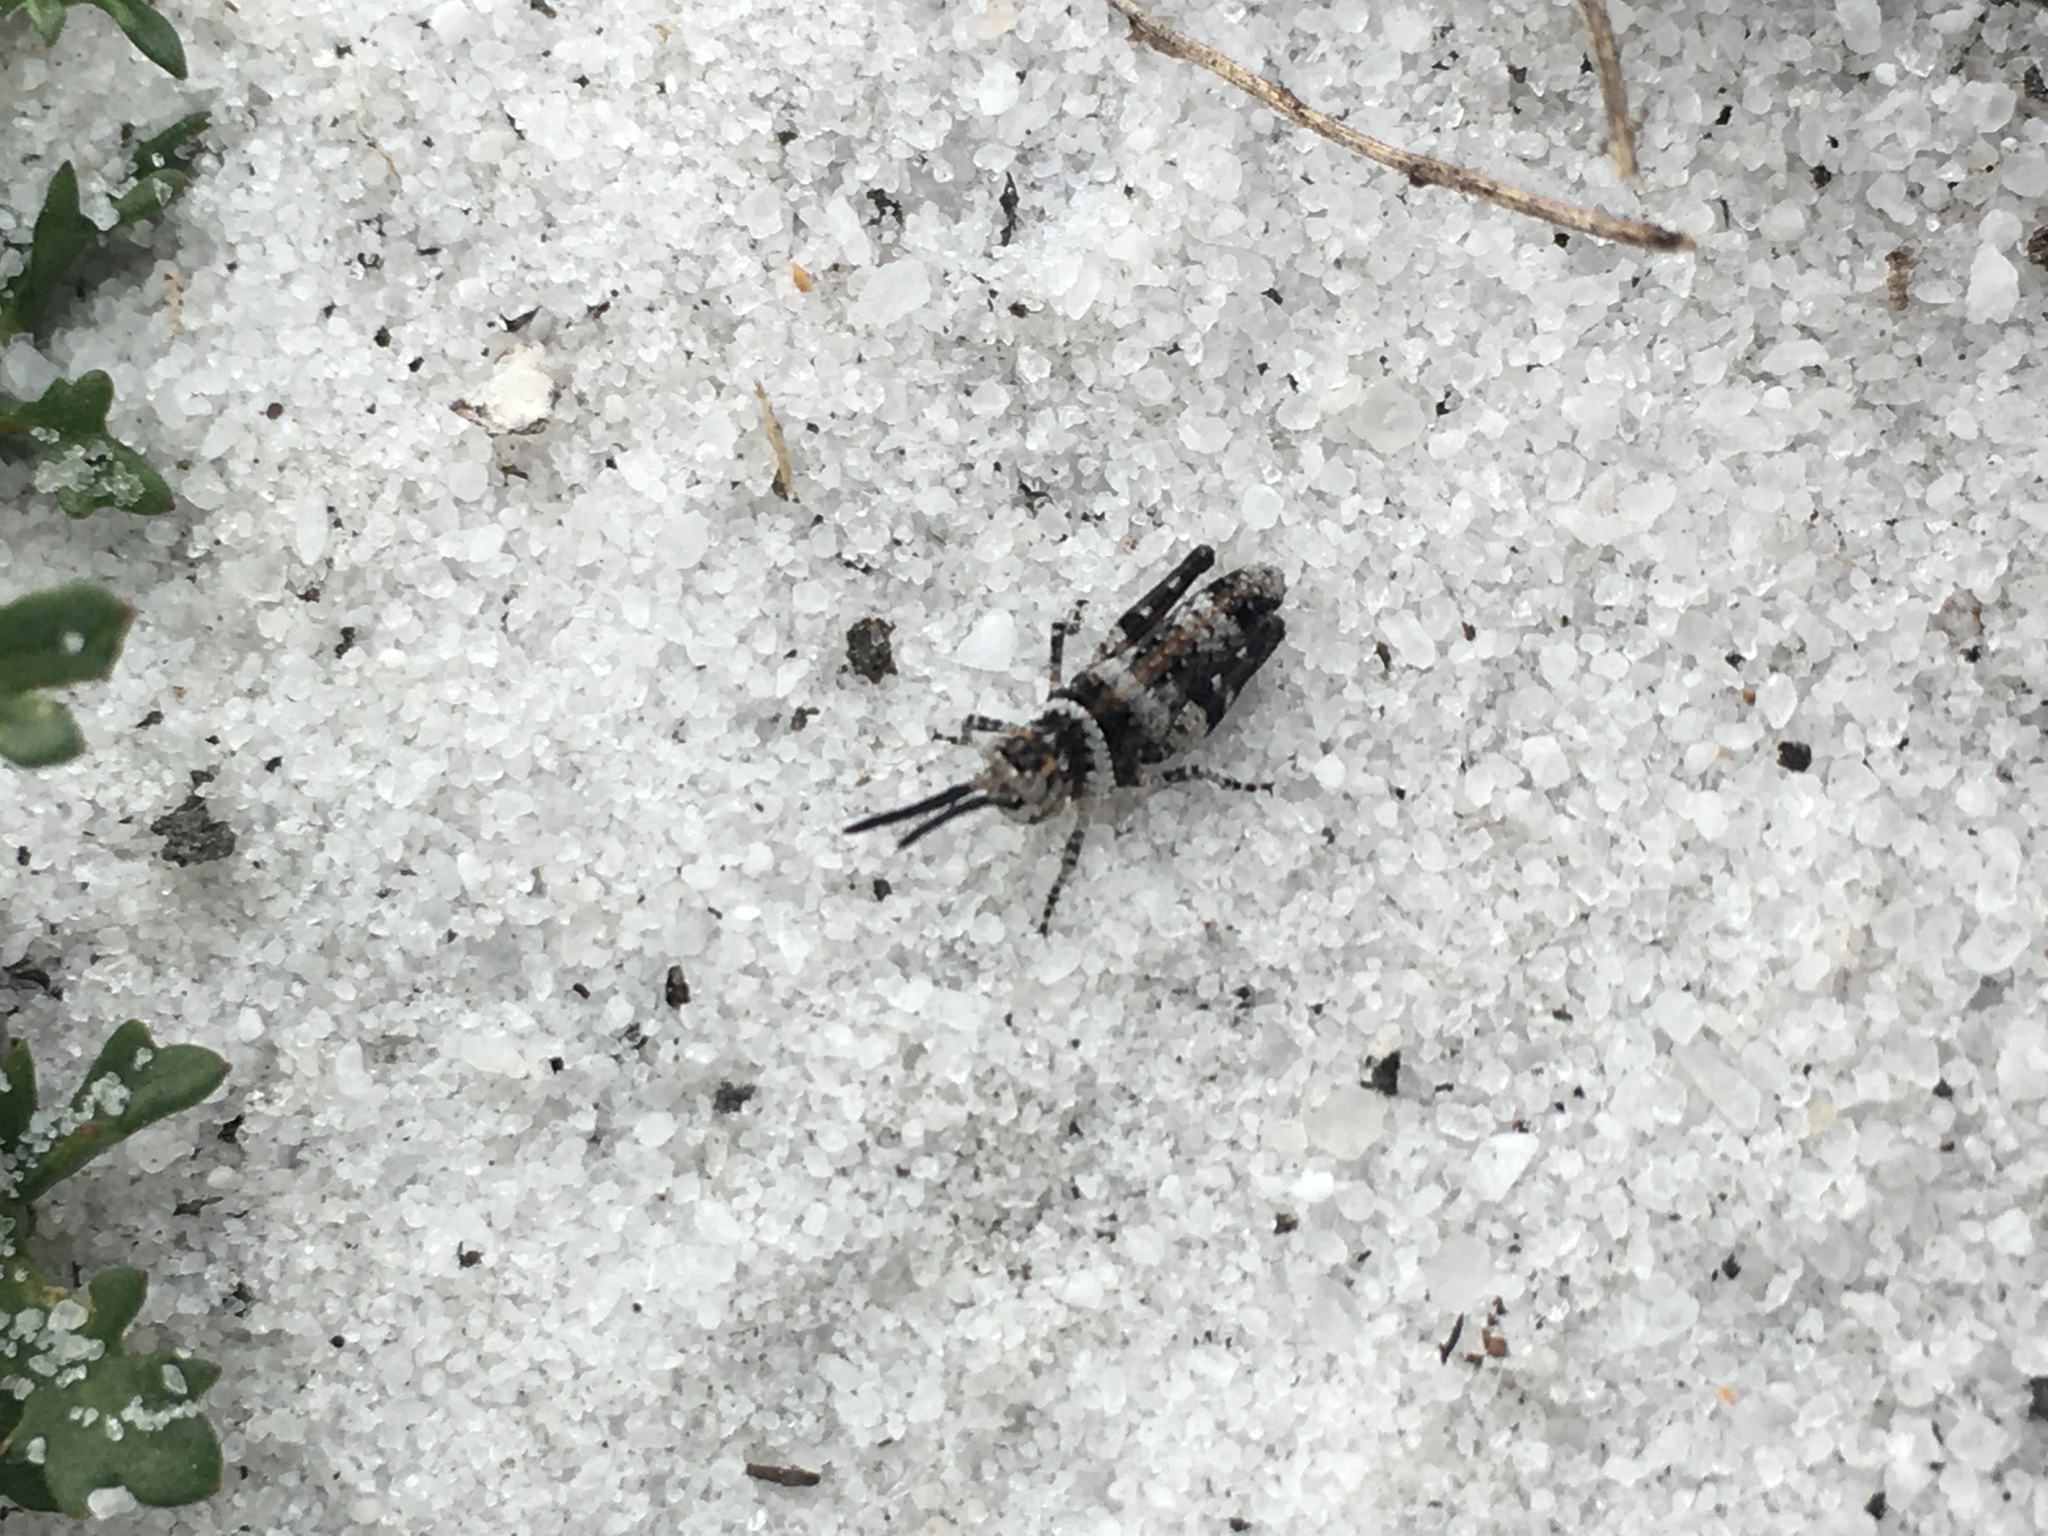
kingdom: Animalia
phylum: Arthropoda
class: Insecta
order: Orthoptera
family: Acrididae
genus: Psinidia
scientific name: Psinidia fenestralis
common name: Long-horned locust
